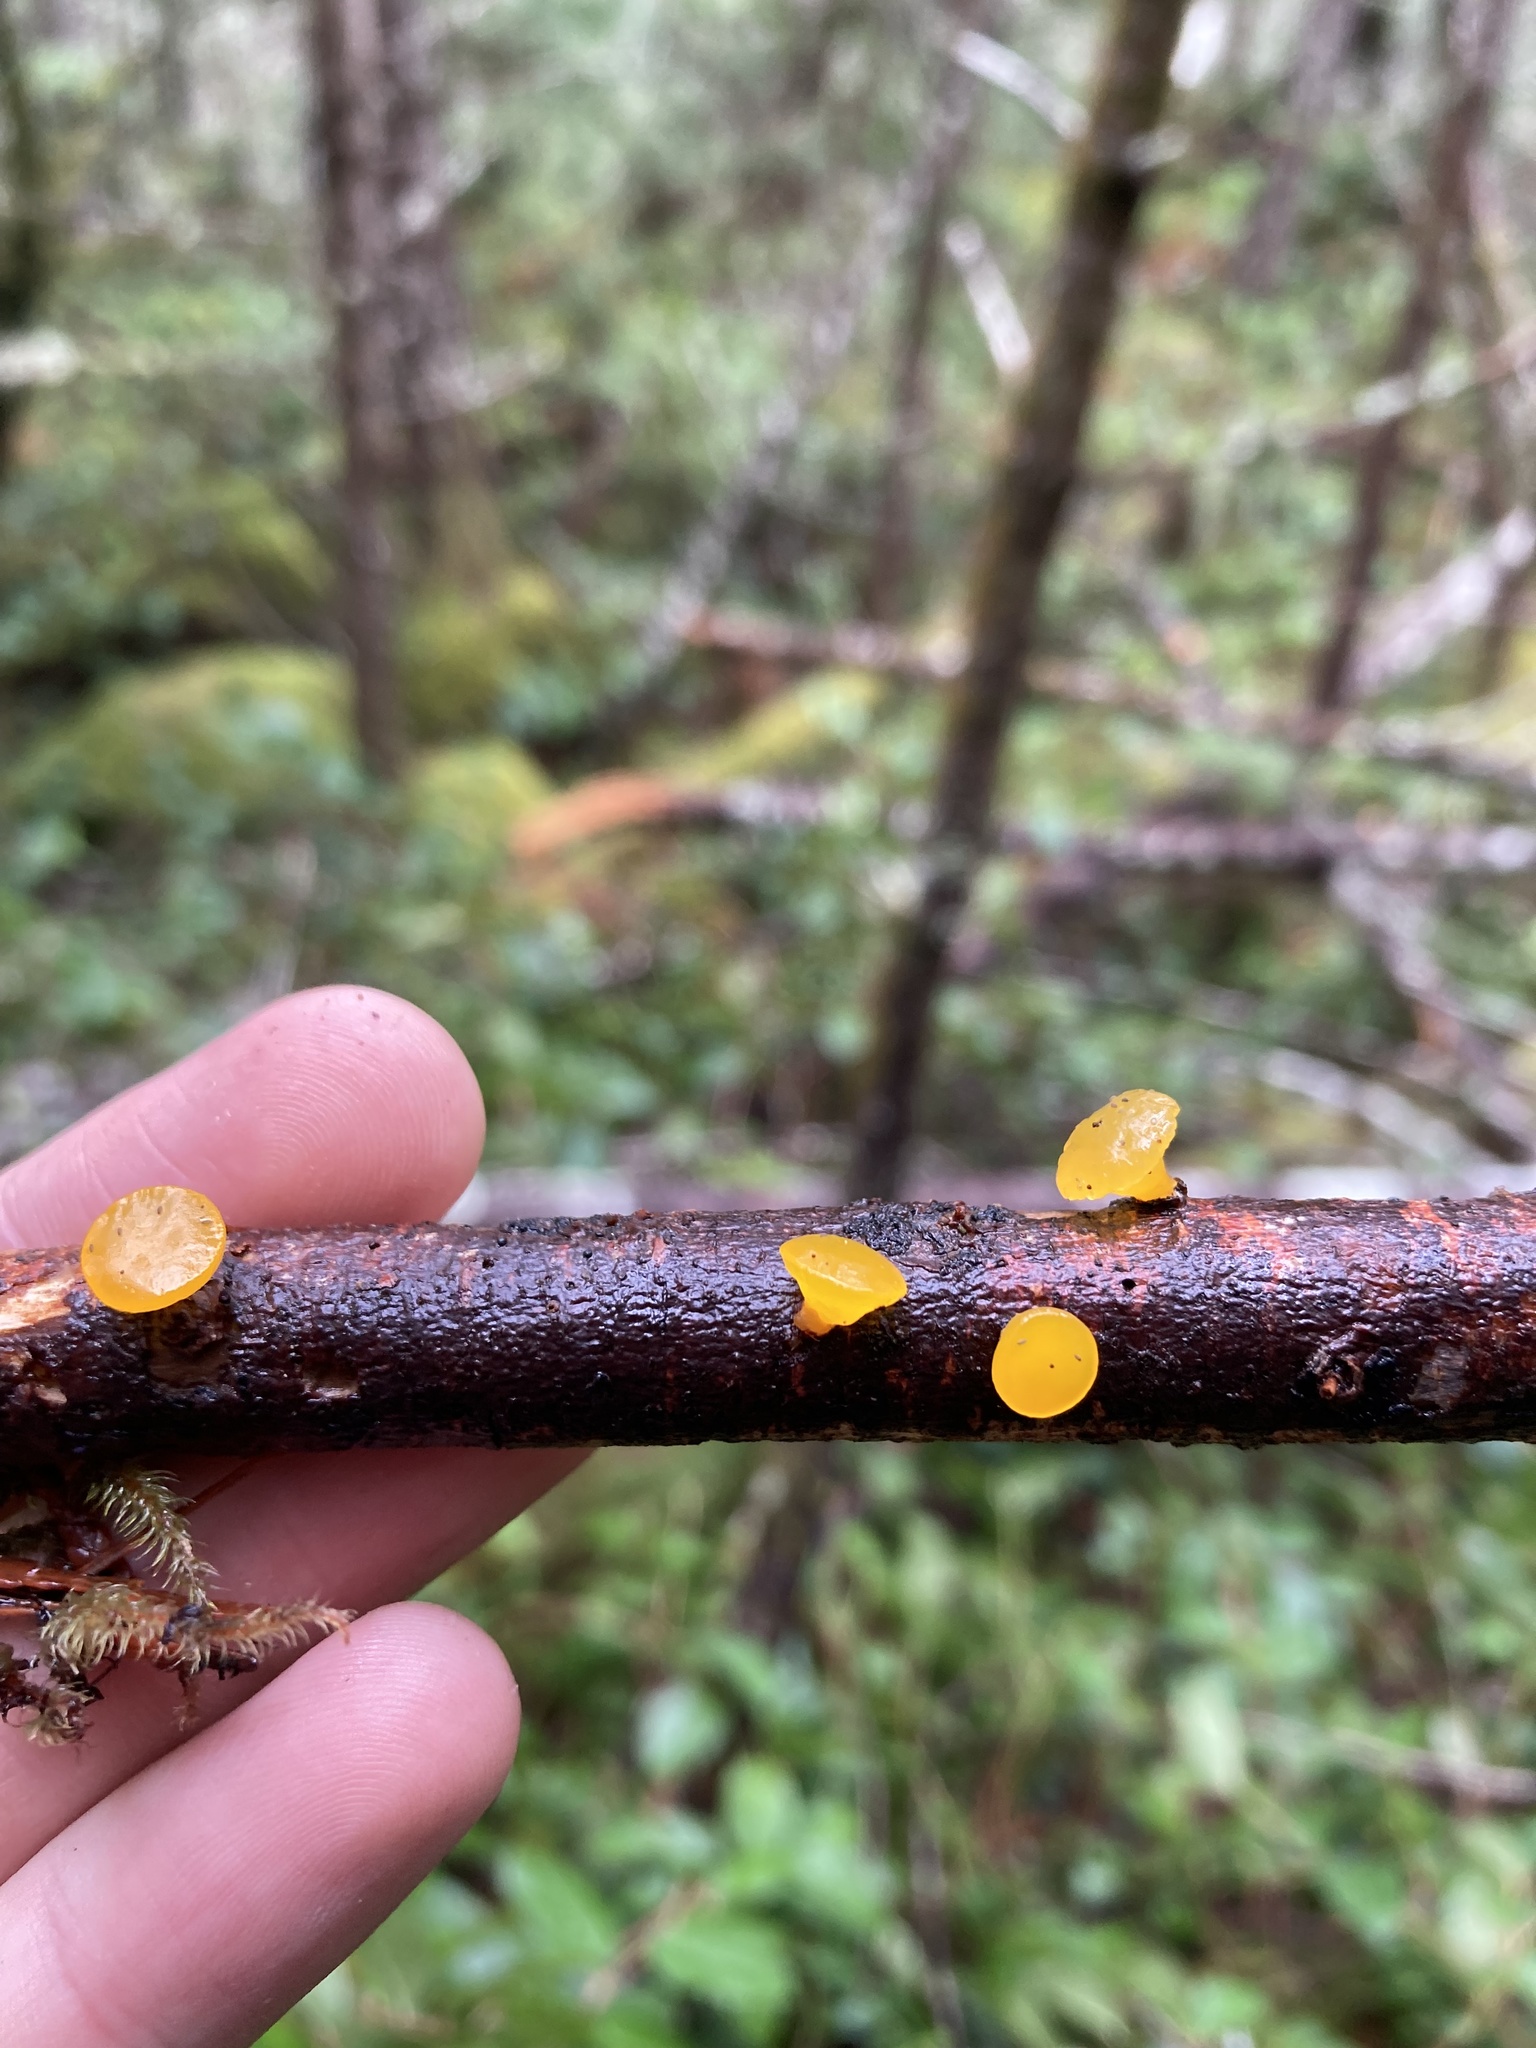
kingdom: Fungi
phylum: Basidiomycota
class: Dacrymycetes
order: Dacrymycetales
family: Dacrymycetaceae
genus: Guepiniopsis
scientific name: Guepiniopsis alpina
